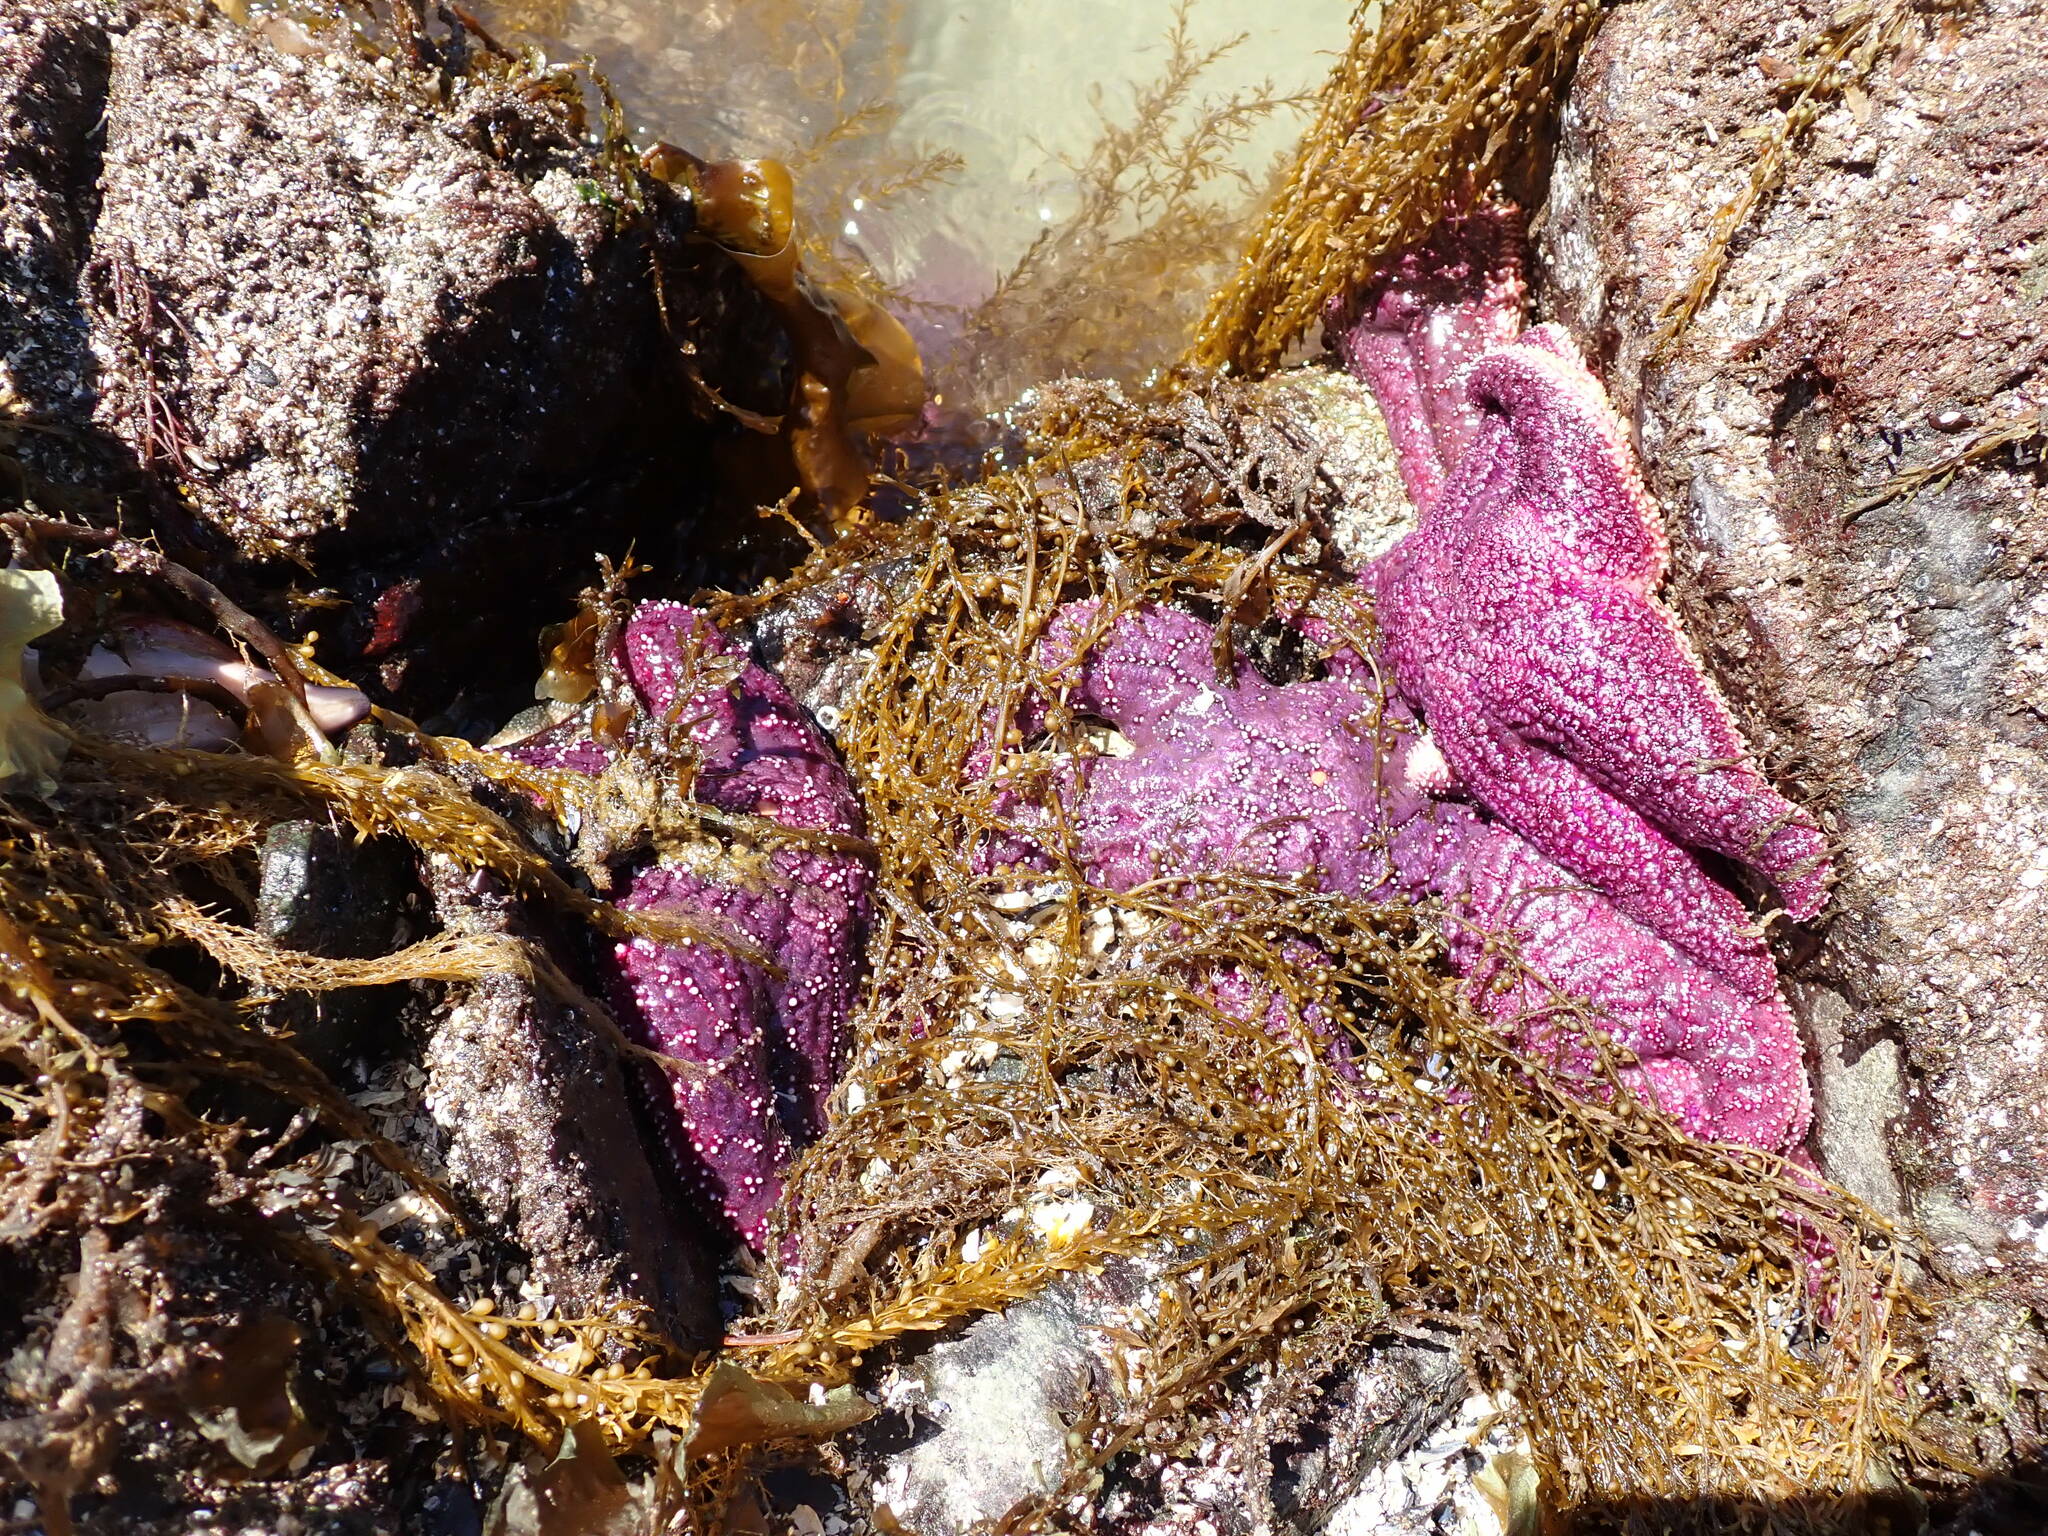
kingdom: Animalia
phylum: Echinodermata
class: Asteroidea
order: Forcipulatida
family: Asteriidae
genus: Pisaster
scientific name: Pisaster ochraceus
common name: Ochre stars
